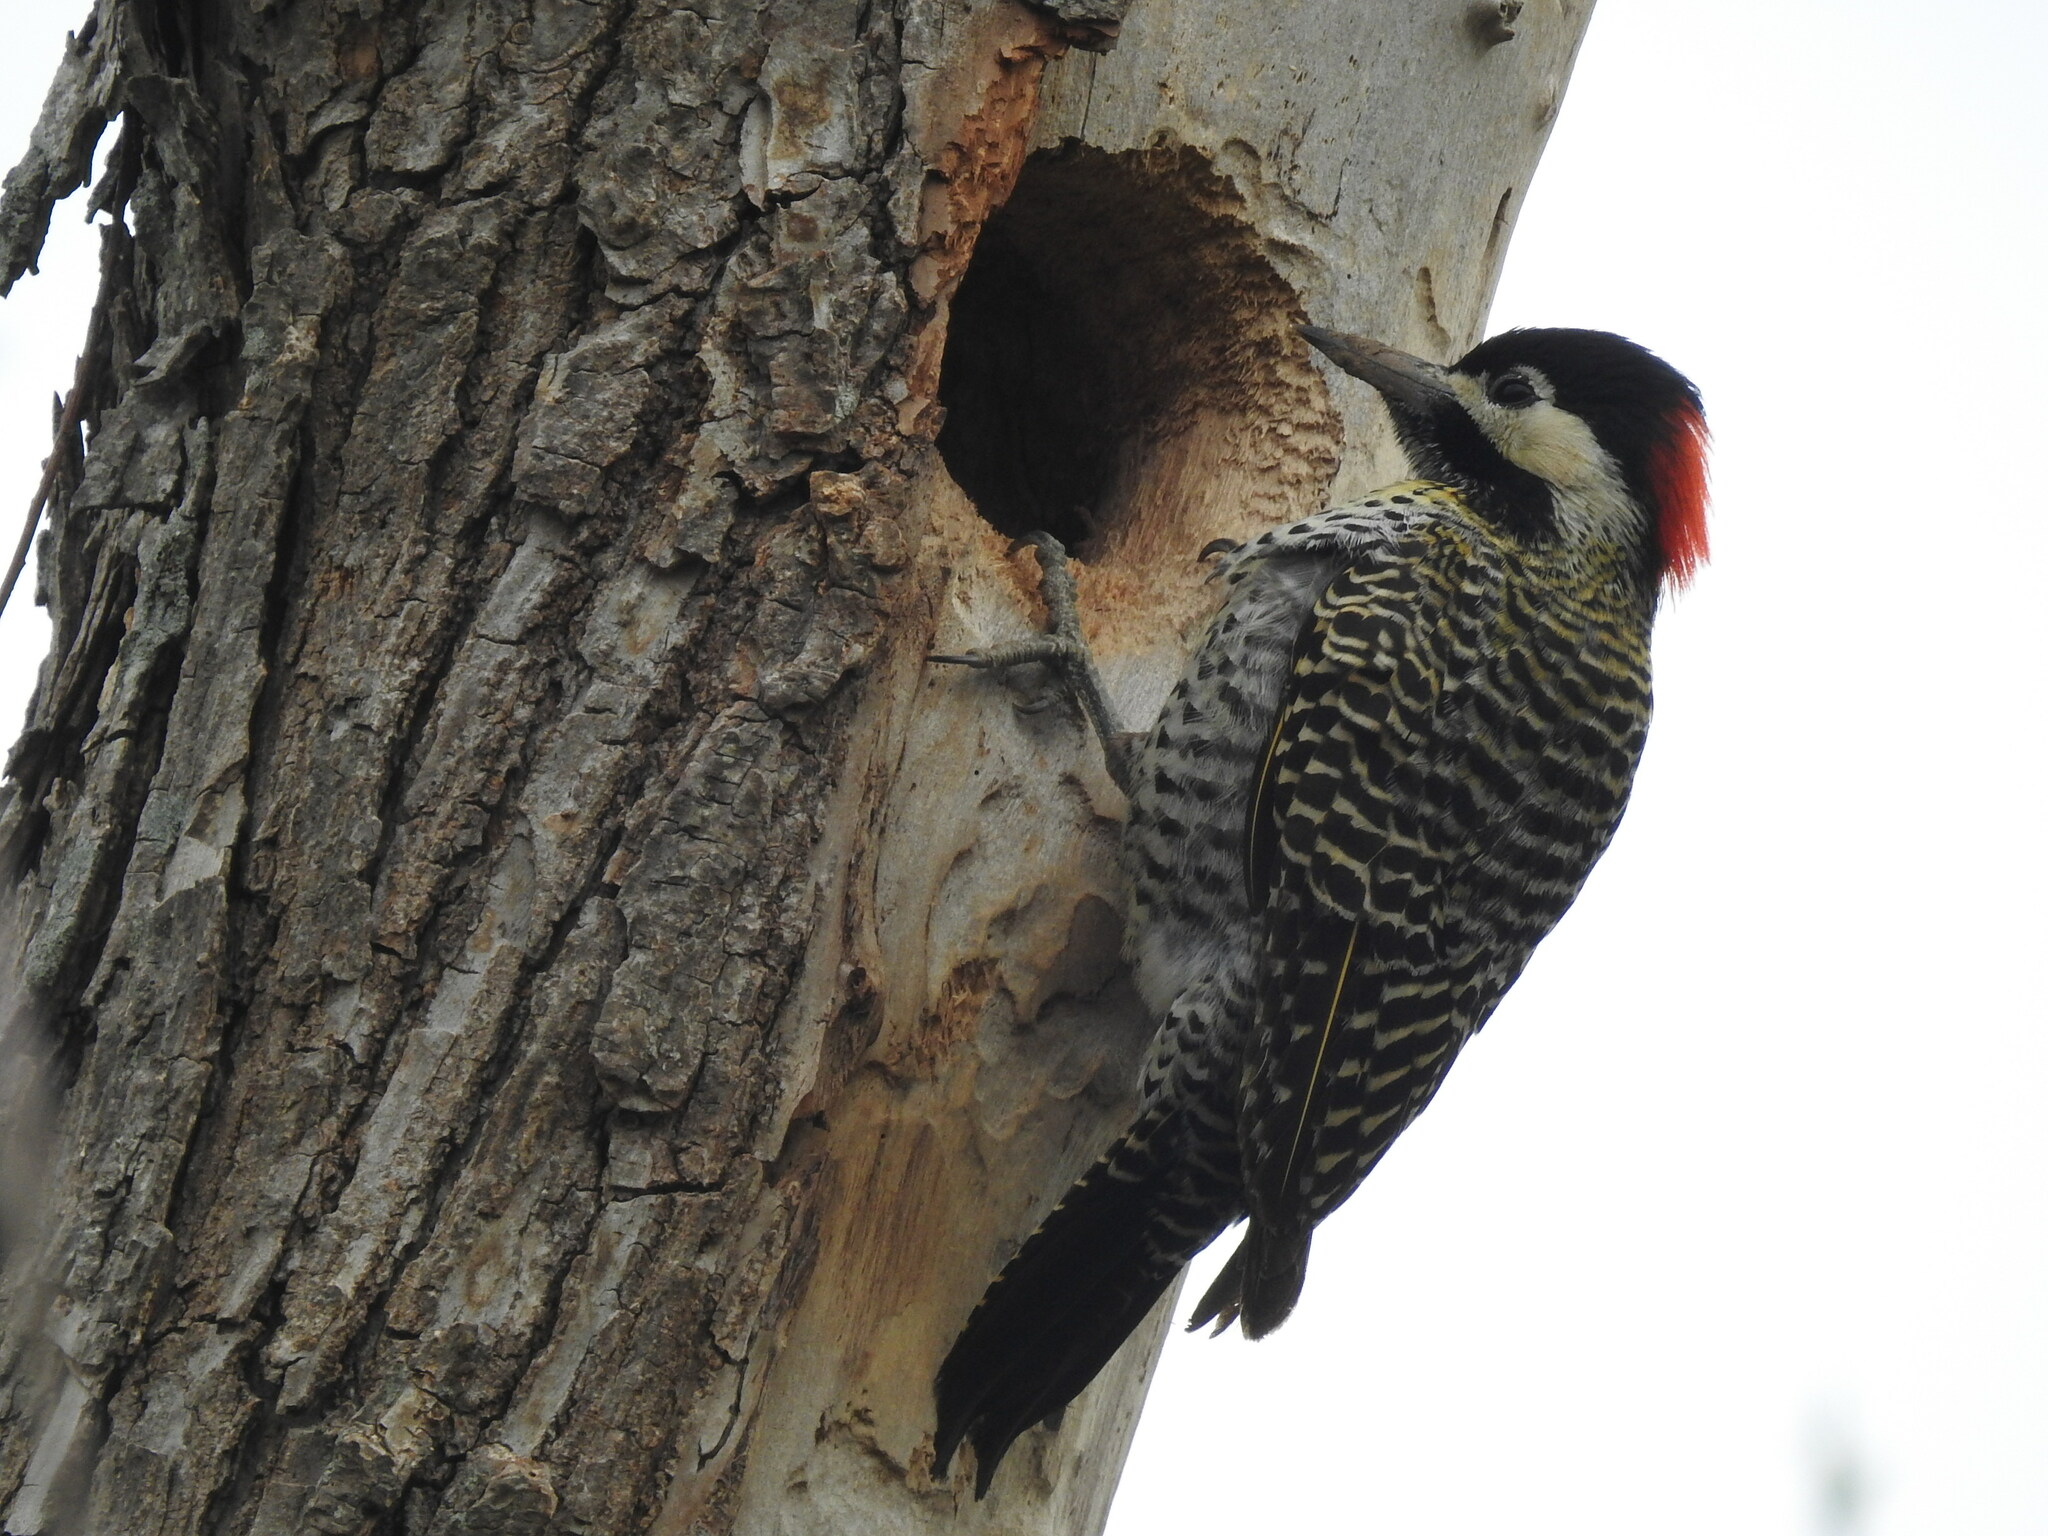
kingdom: Animalia
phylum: Chordata
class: Aves
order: Piciformes
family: Picidae
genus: Colaptes
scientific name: Colaptes melanochloros
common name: Green-barred woodpecker
